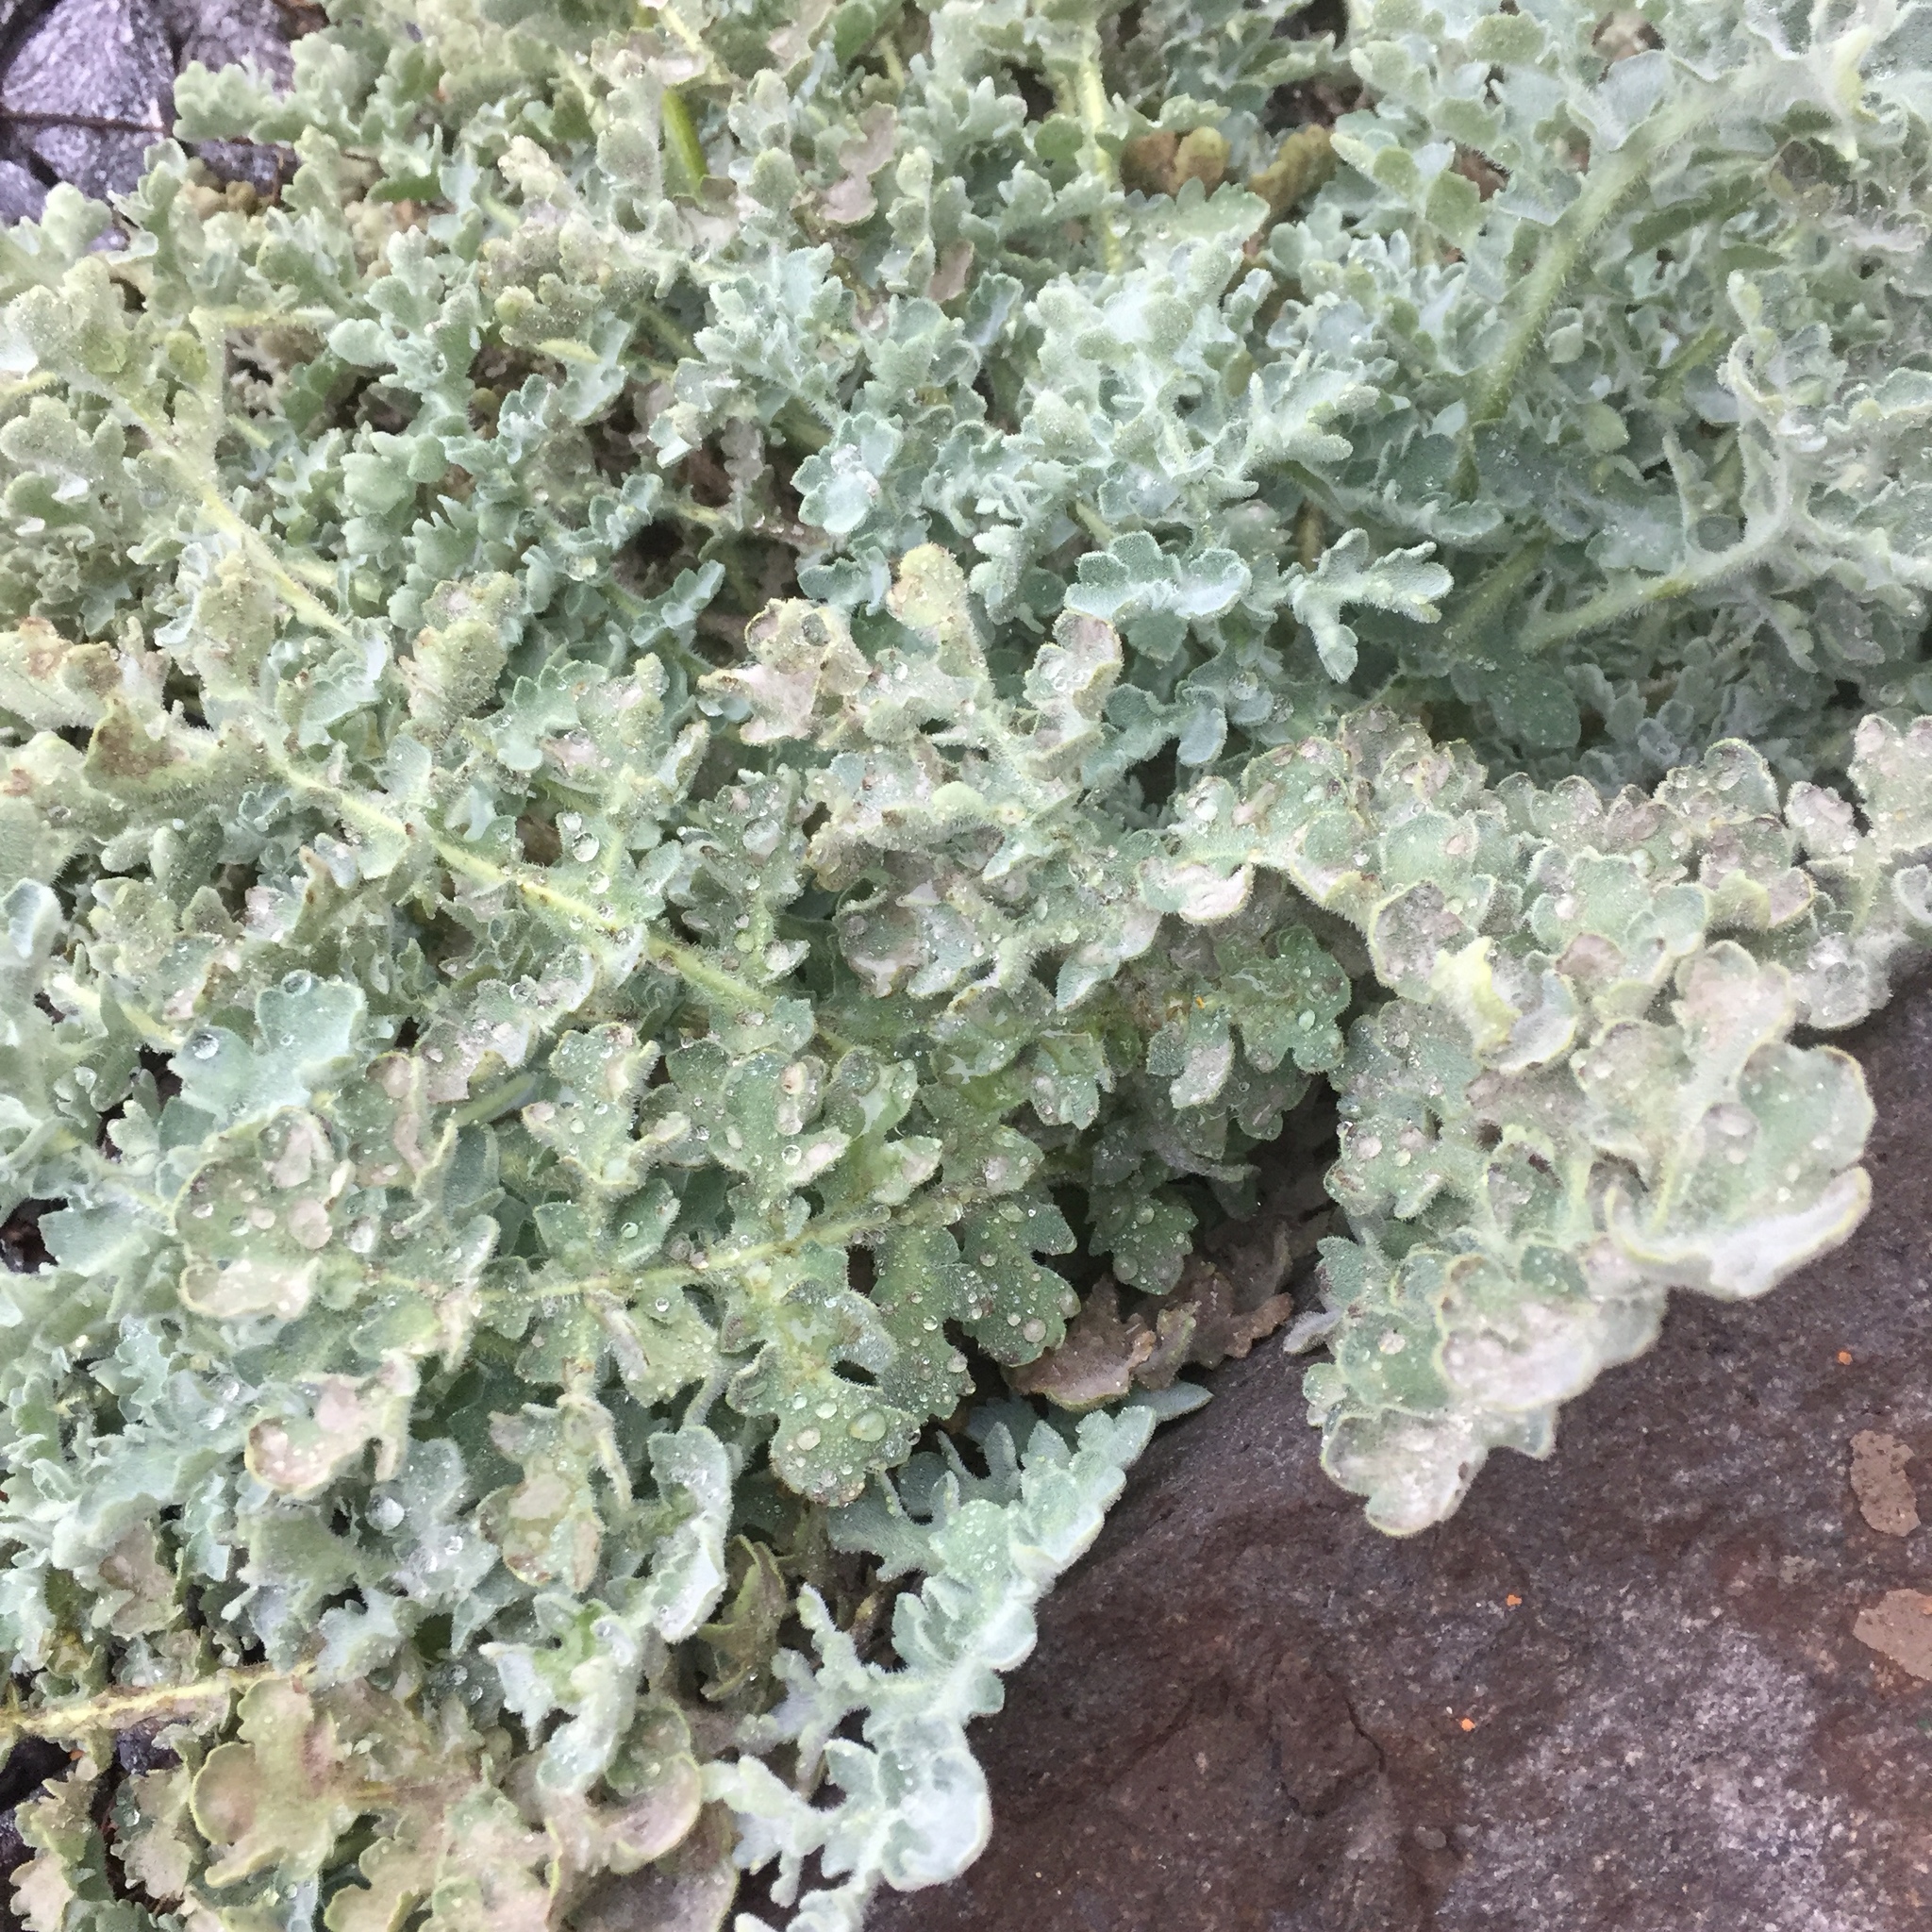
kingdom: Plantae
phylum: Tracheophyta
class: Magnoliopsida
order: Ranunculales
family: Papaveraceae
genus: Glaucium
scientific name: Glaucium flavum
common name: Yellow horned-poppy
